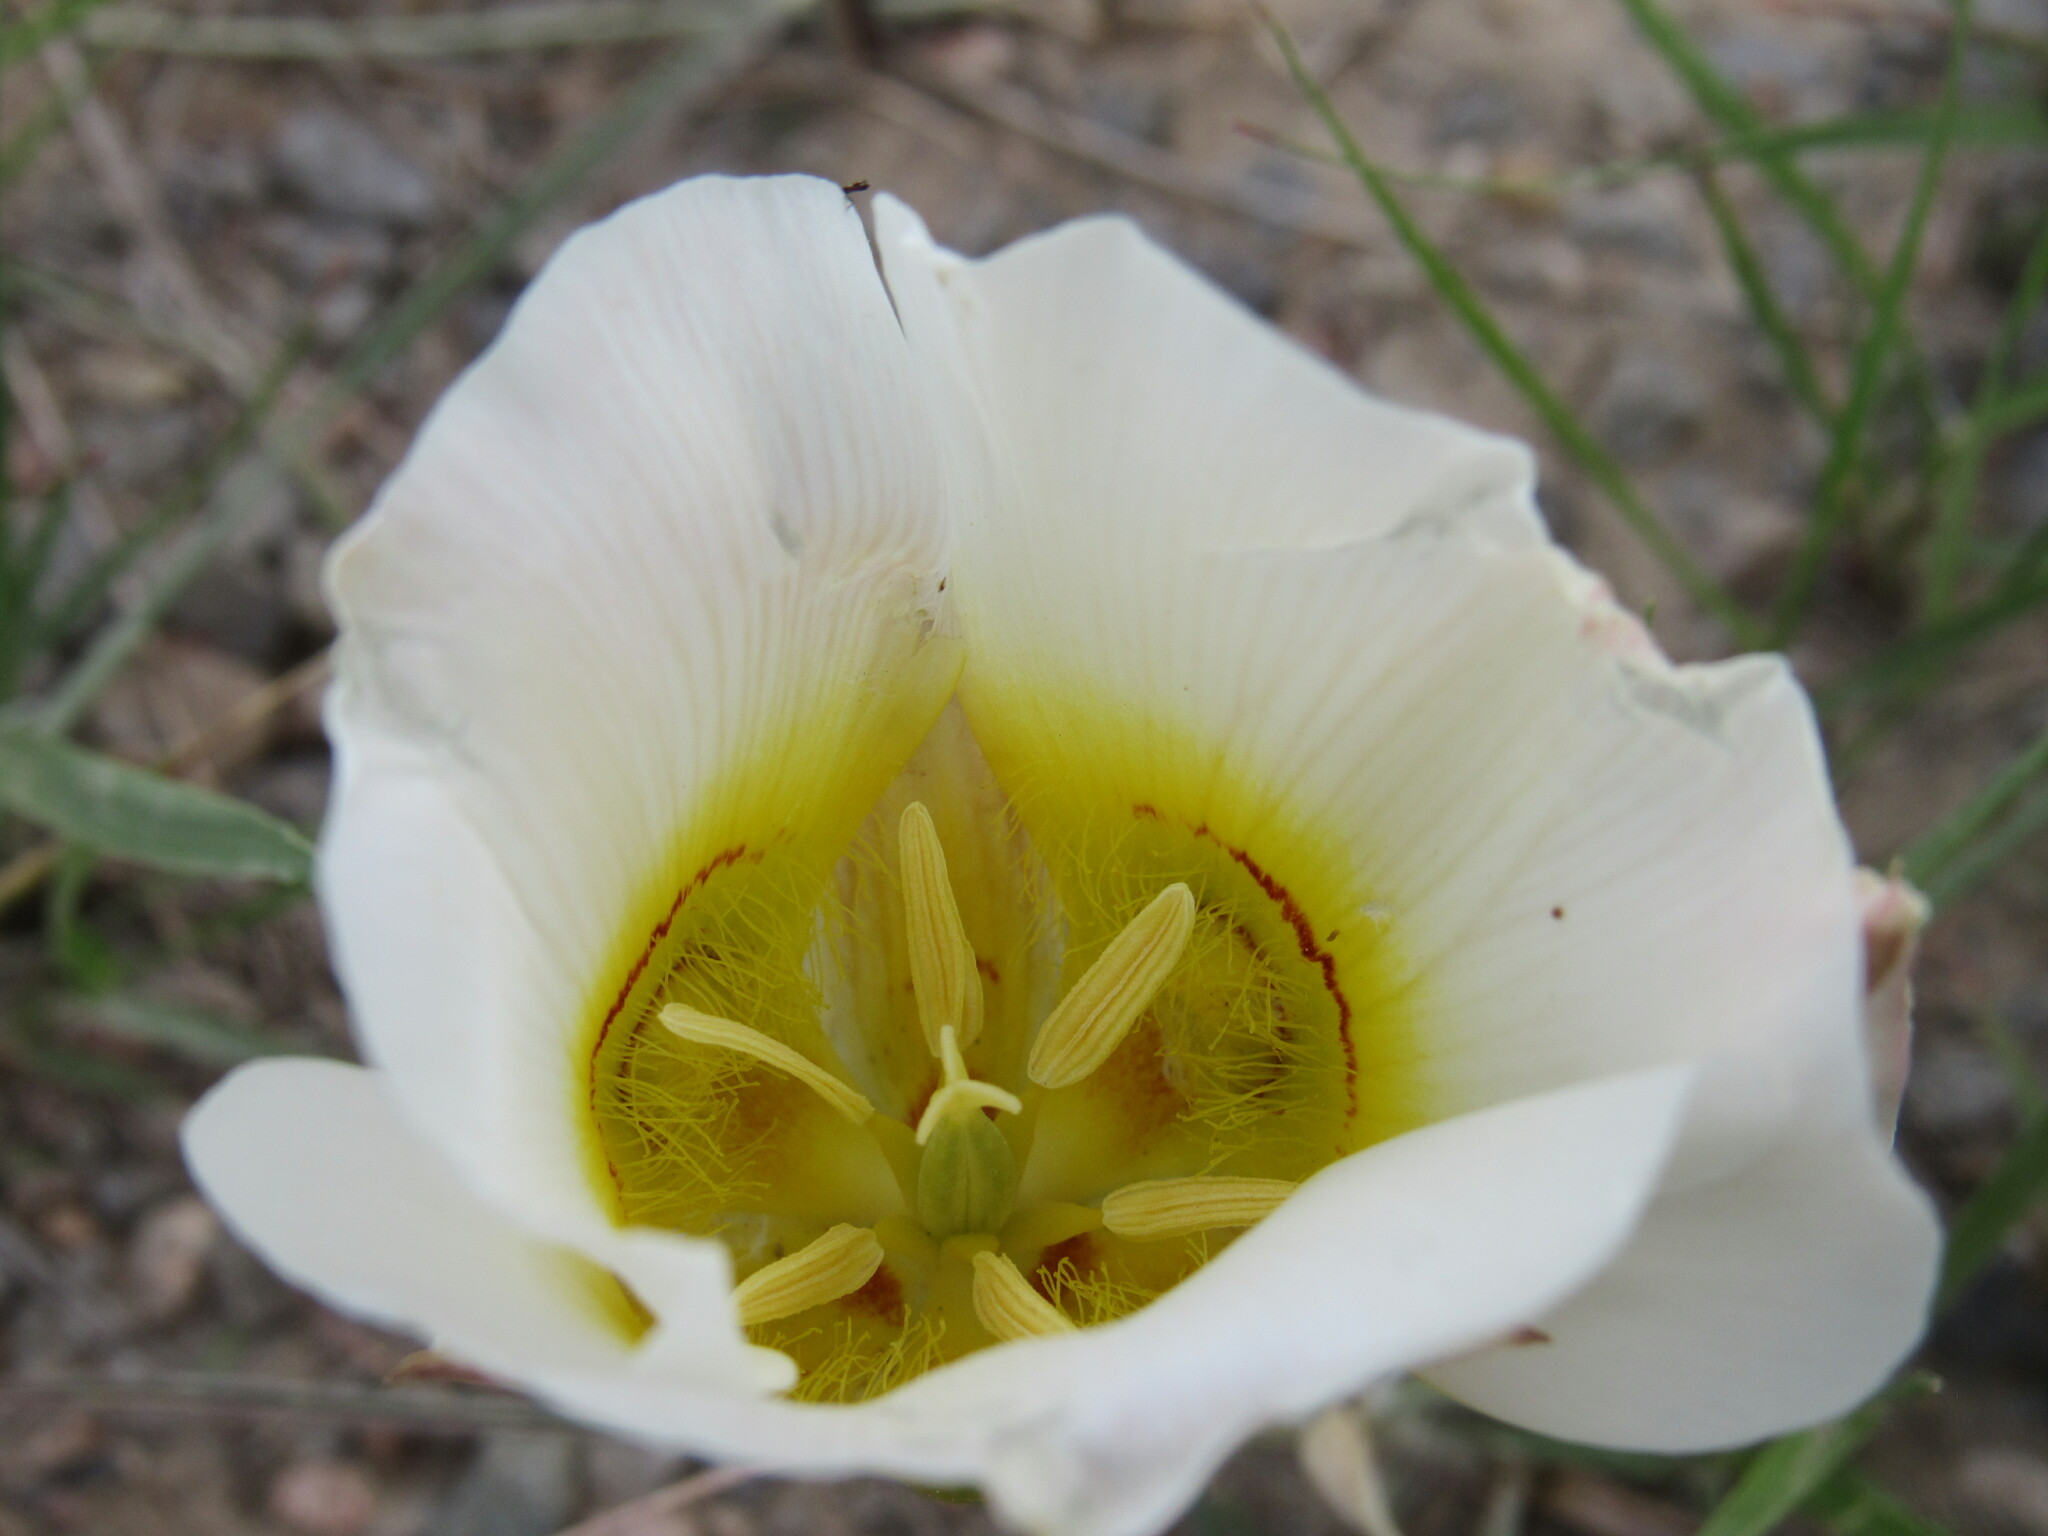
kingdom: Plantae
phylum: Tracheophyta
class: Liliopsida
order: Liliales
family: Liliaceae
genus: Calochortus
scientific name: Calochortus nuttallii
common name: Sego-lily
